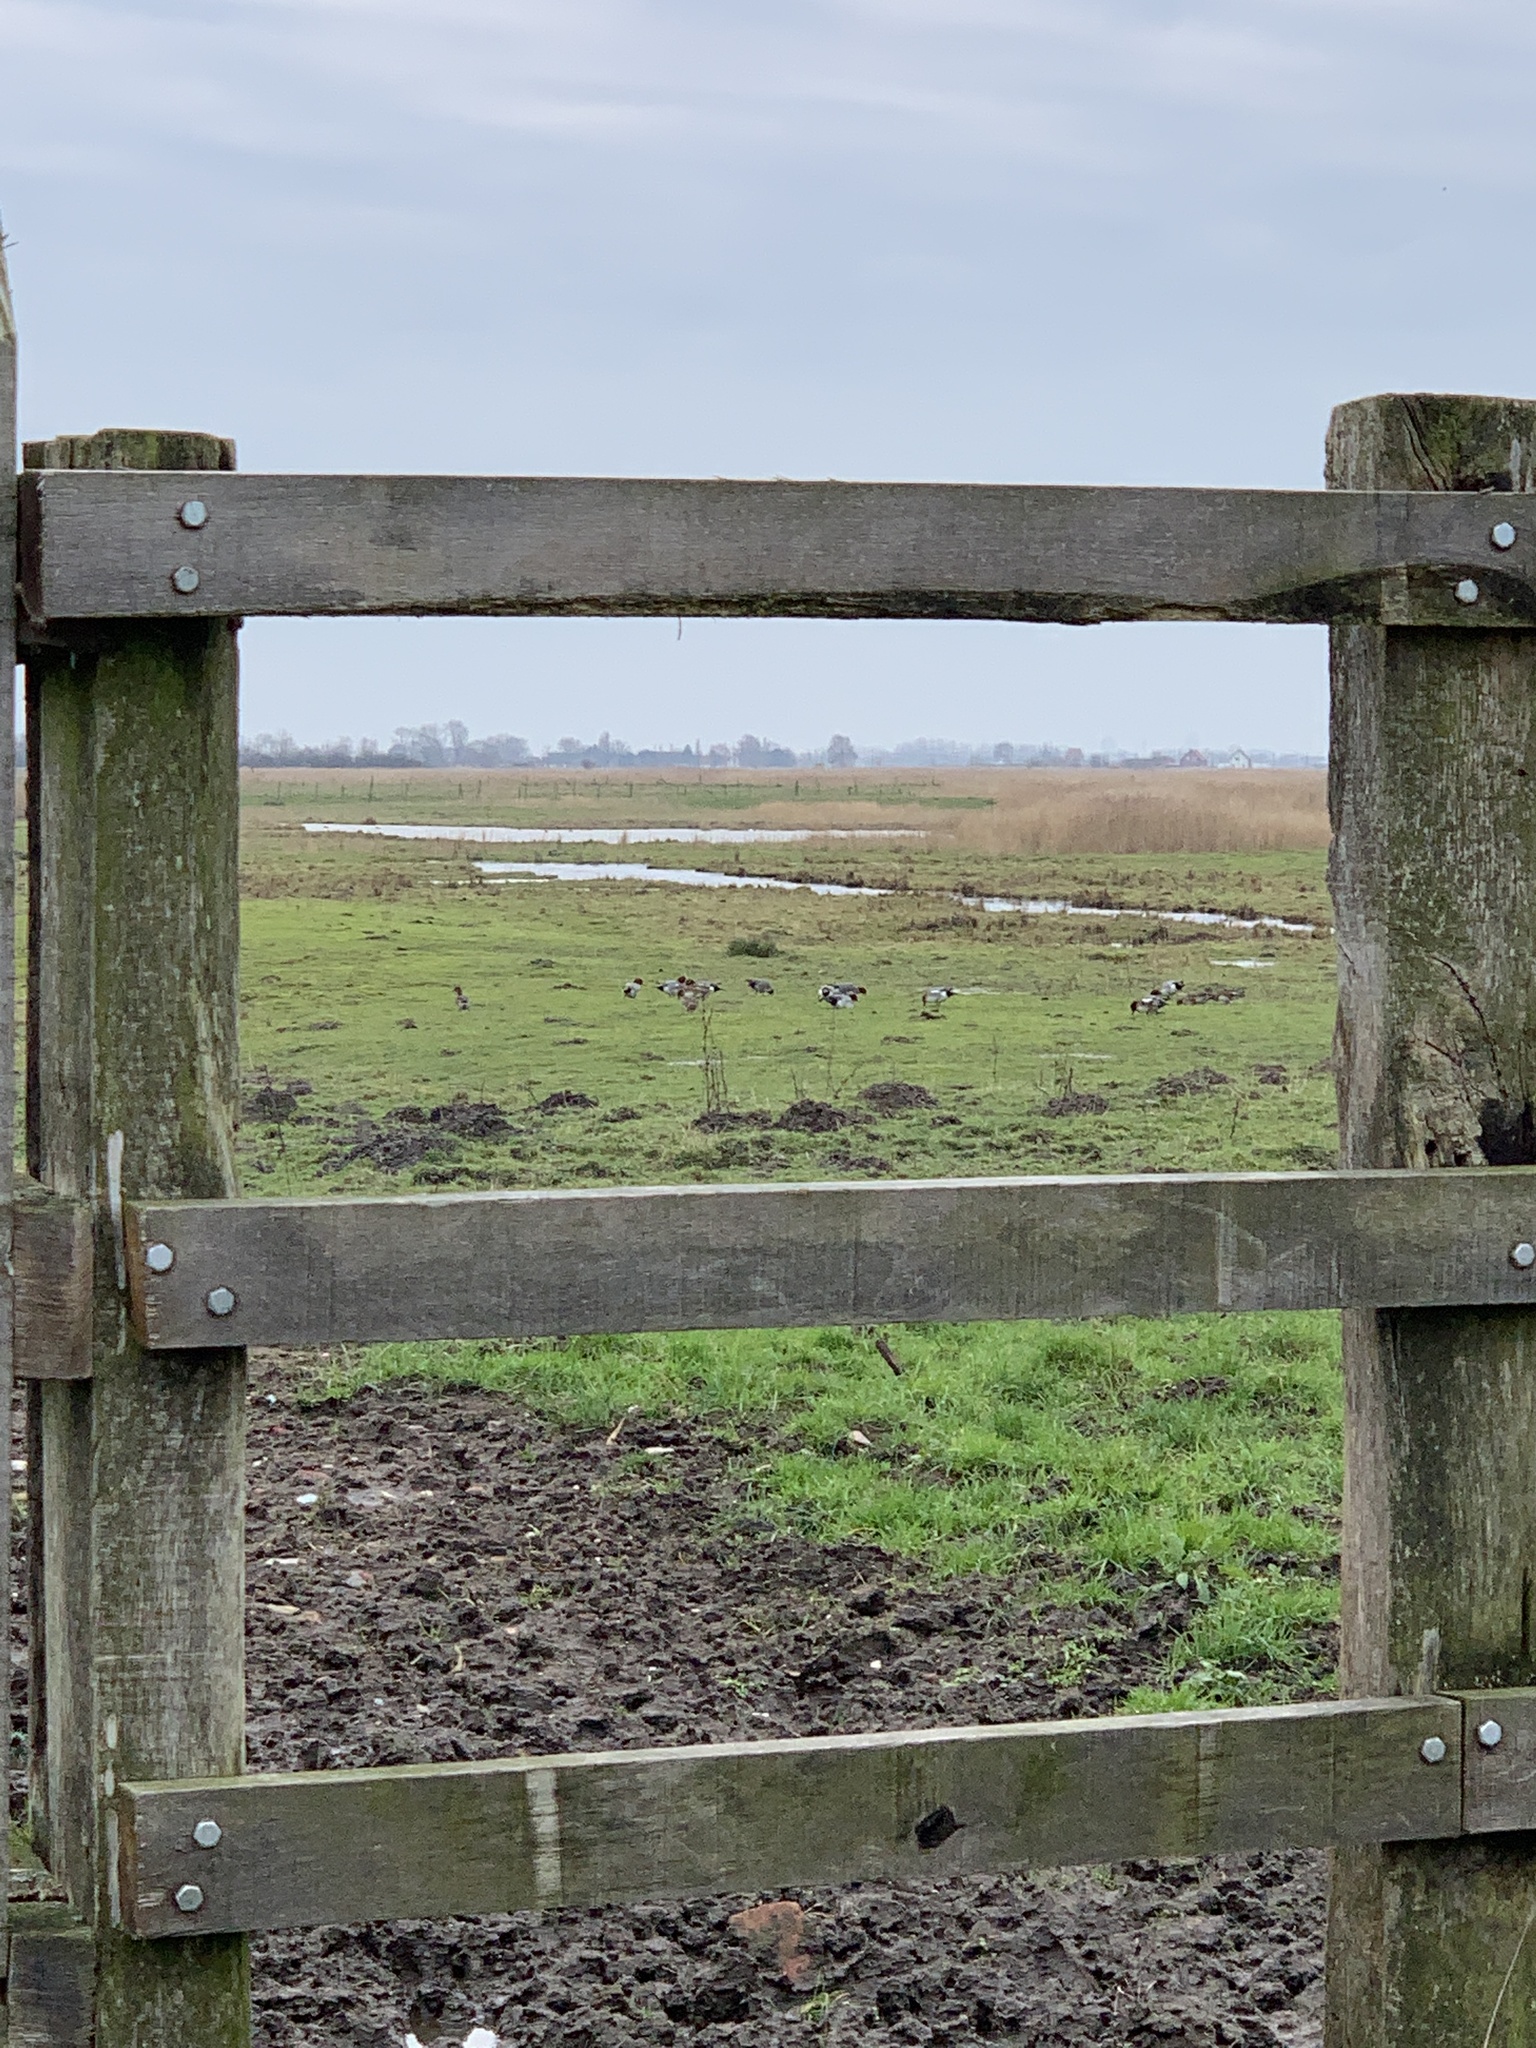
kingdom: Animalia
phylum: Chordata
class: Aves
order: Anseriformes
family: Anatidae
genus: Mareca
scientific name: Mareca penelope
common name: Eurasian wigeon
